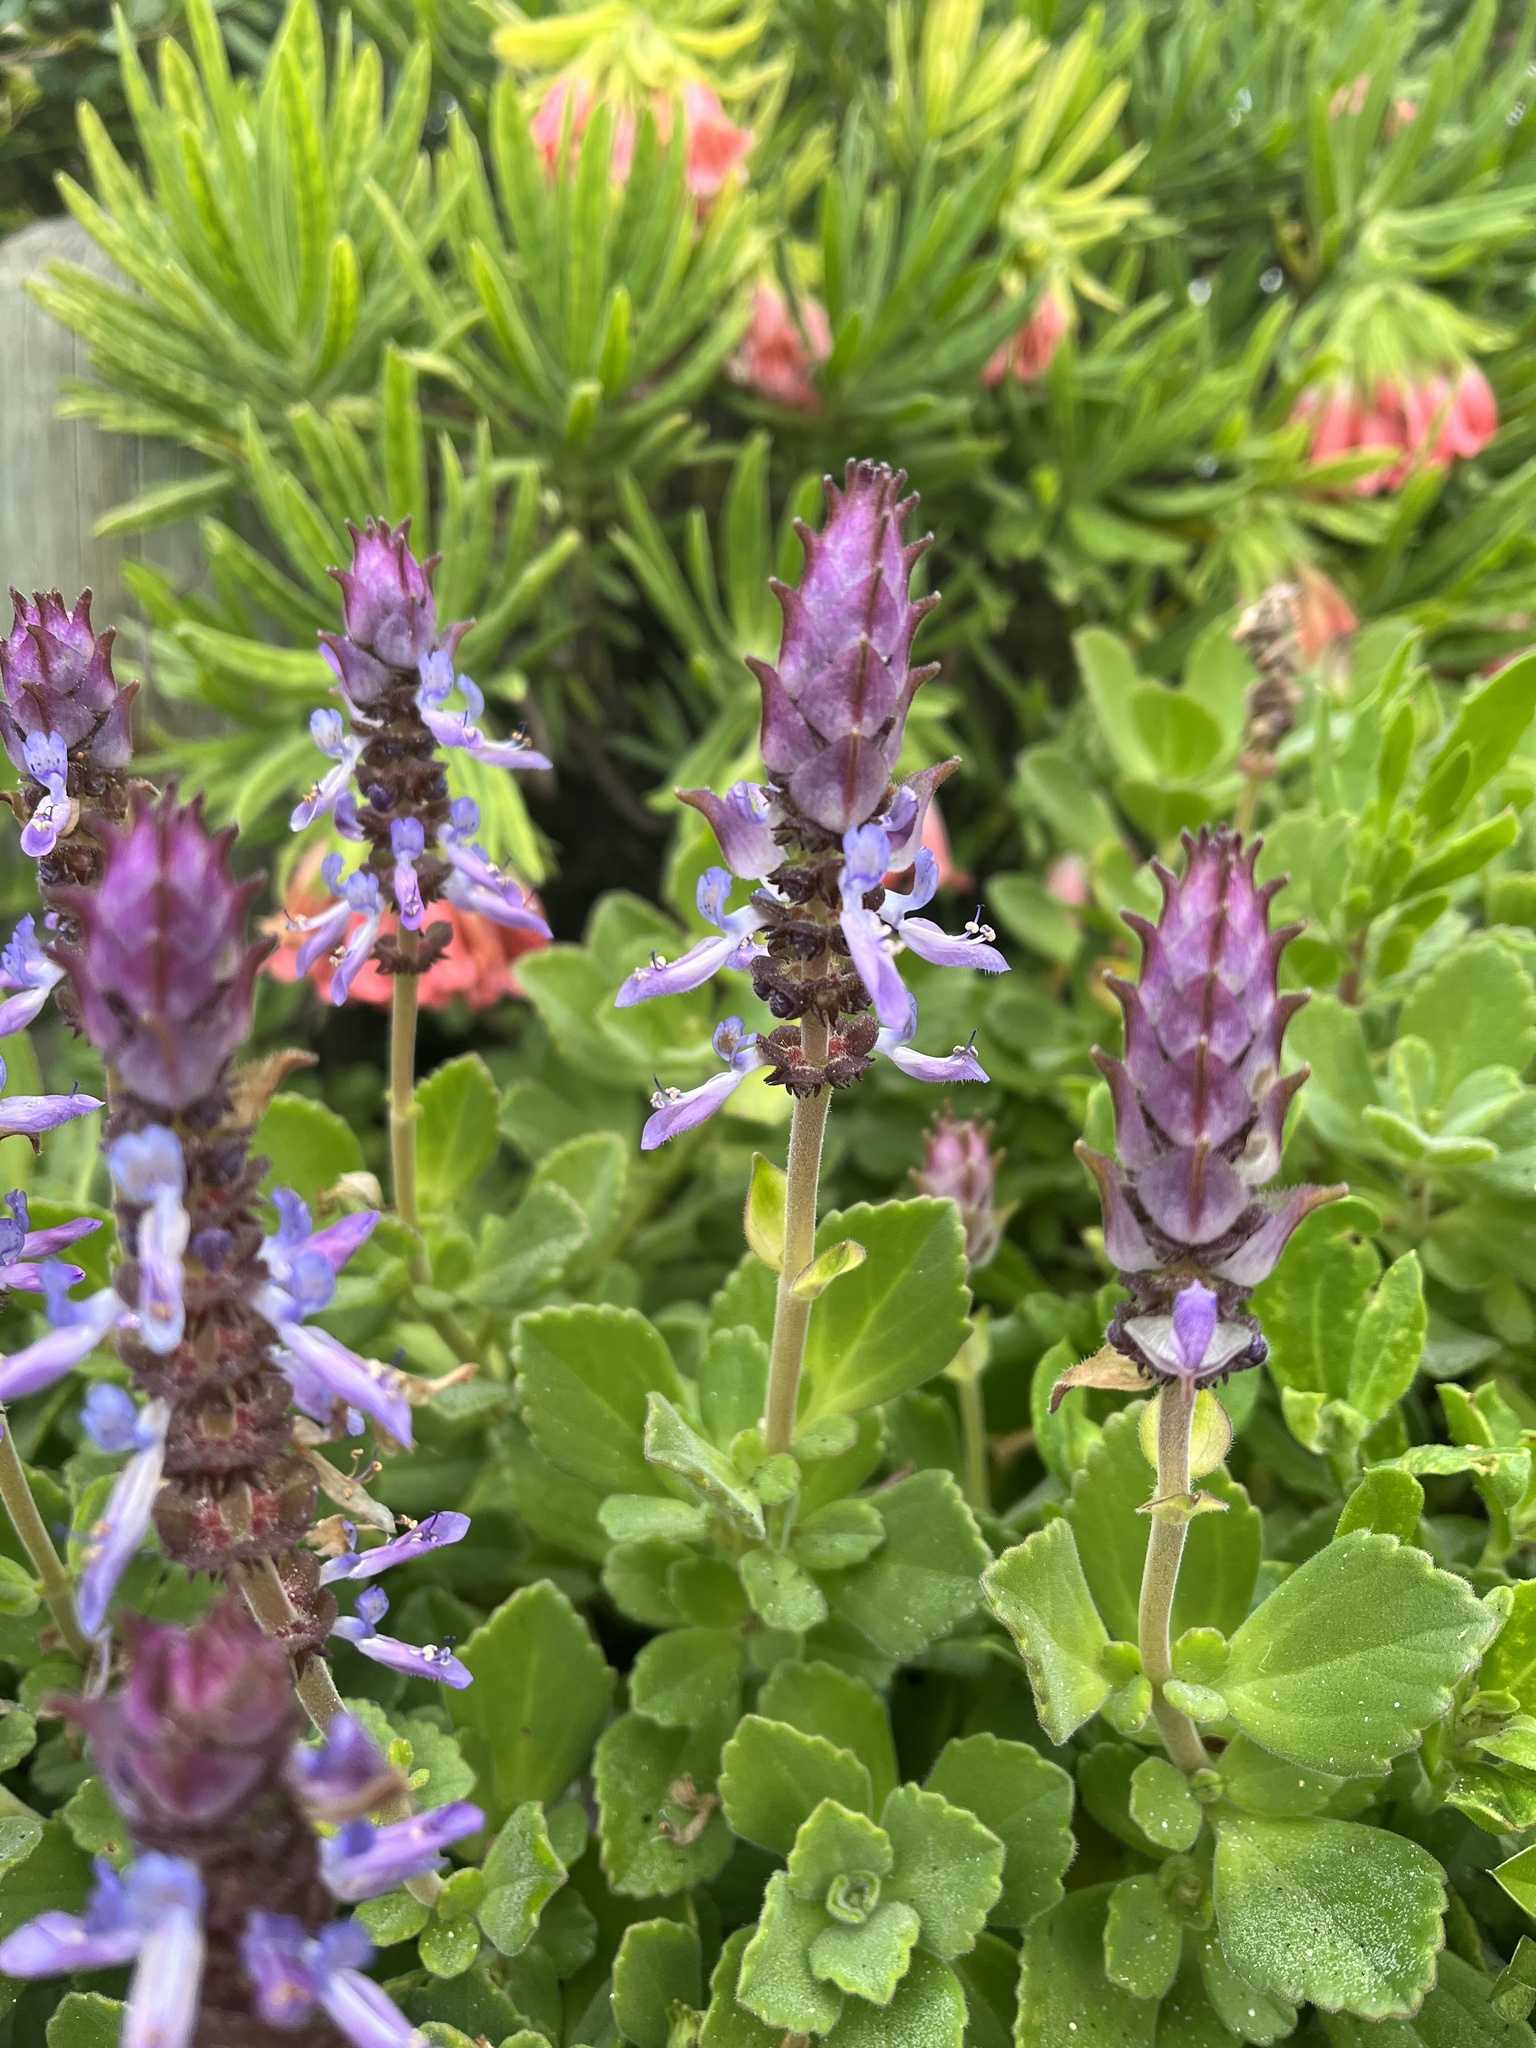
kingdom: Plantae
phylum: Tracheophyta
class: Magnoliopsida
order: Lamiales
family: Lamiaceae
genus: Coleus
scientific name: Coleus neochilus
